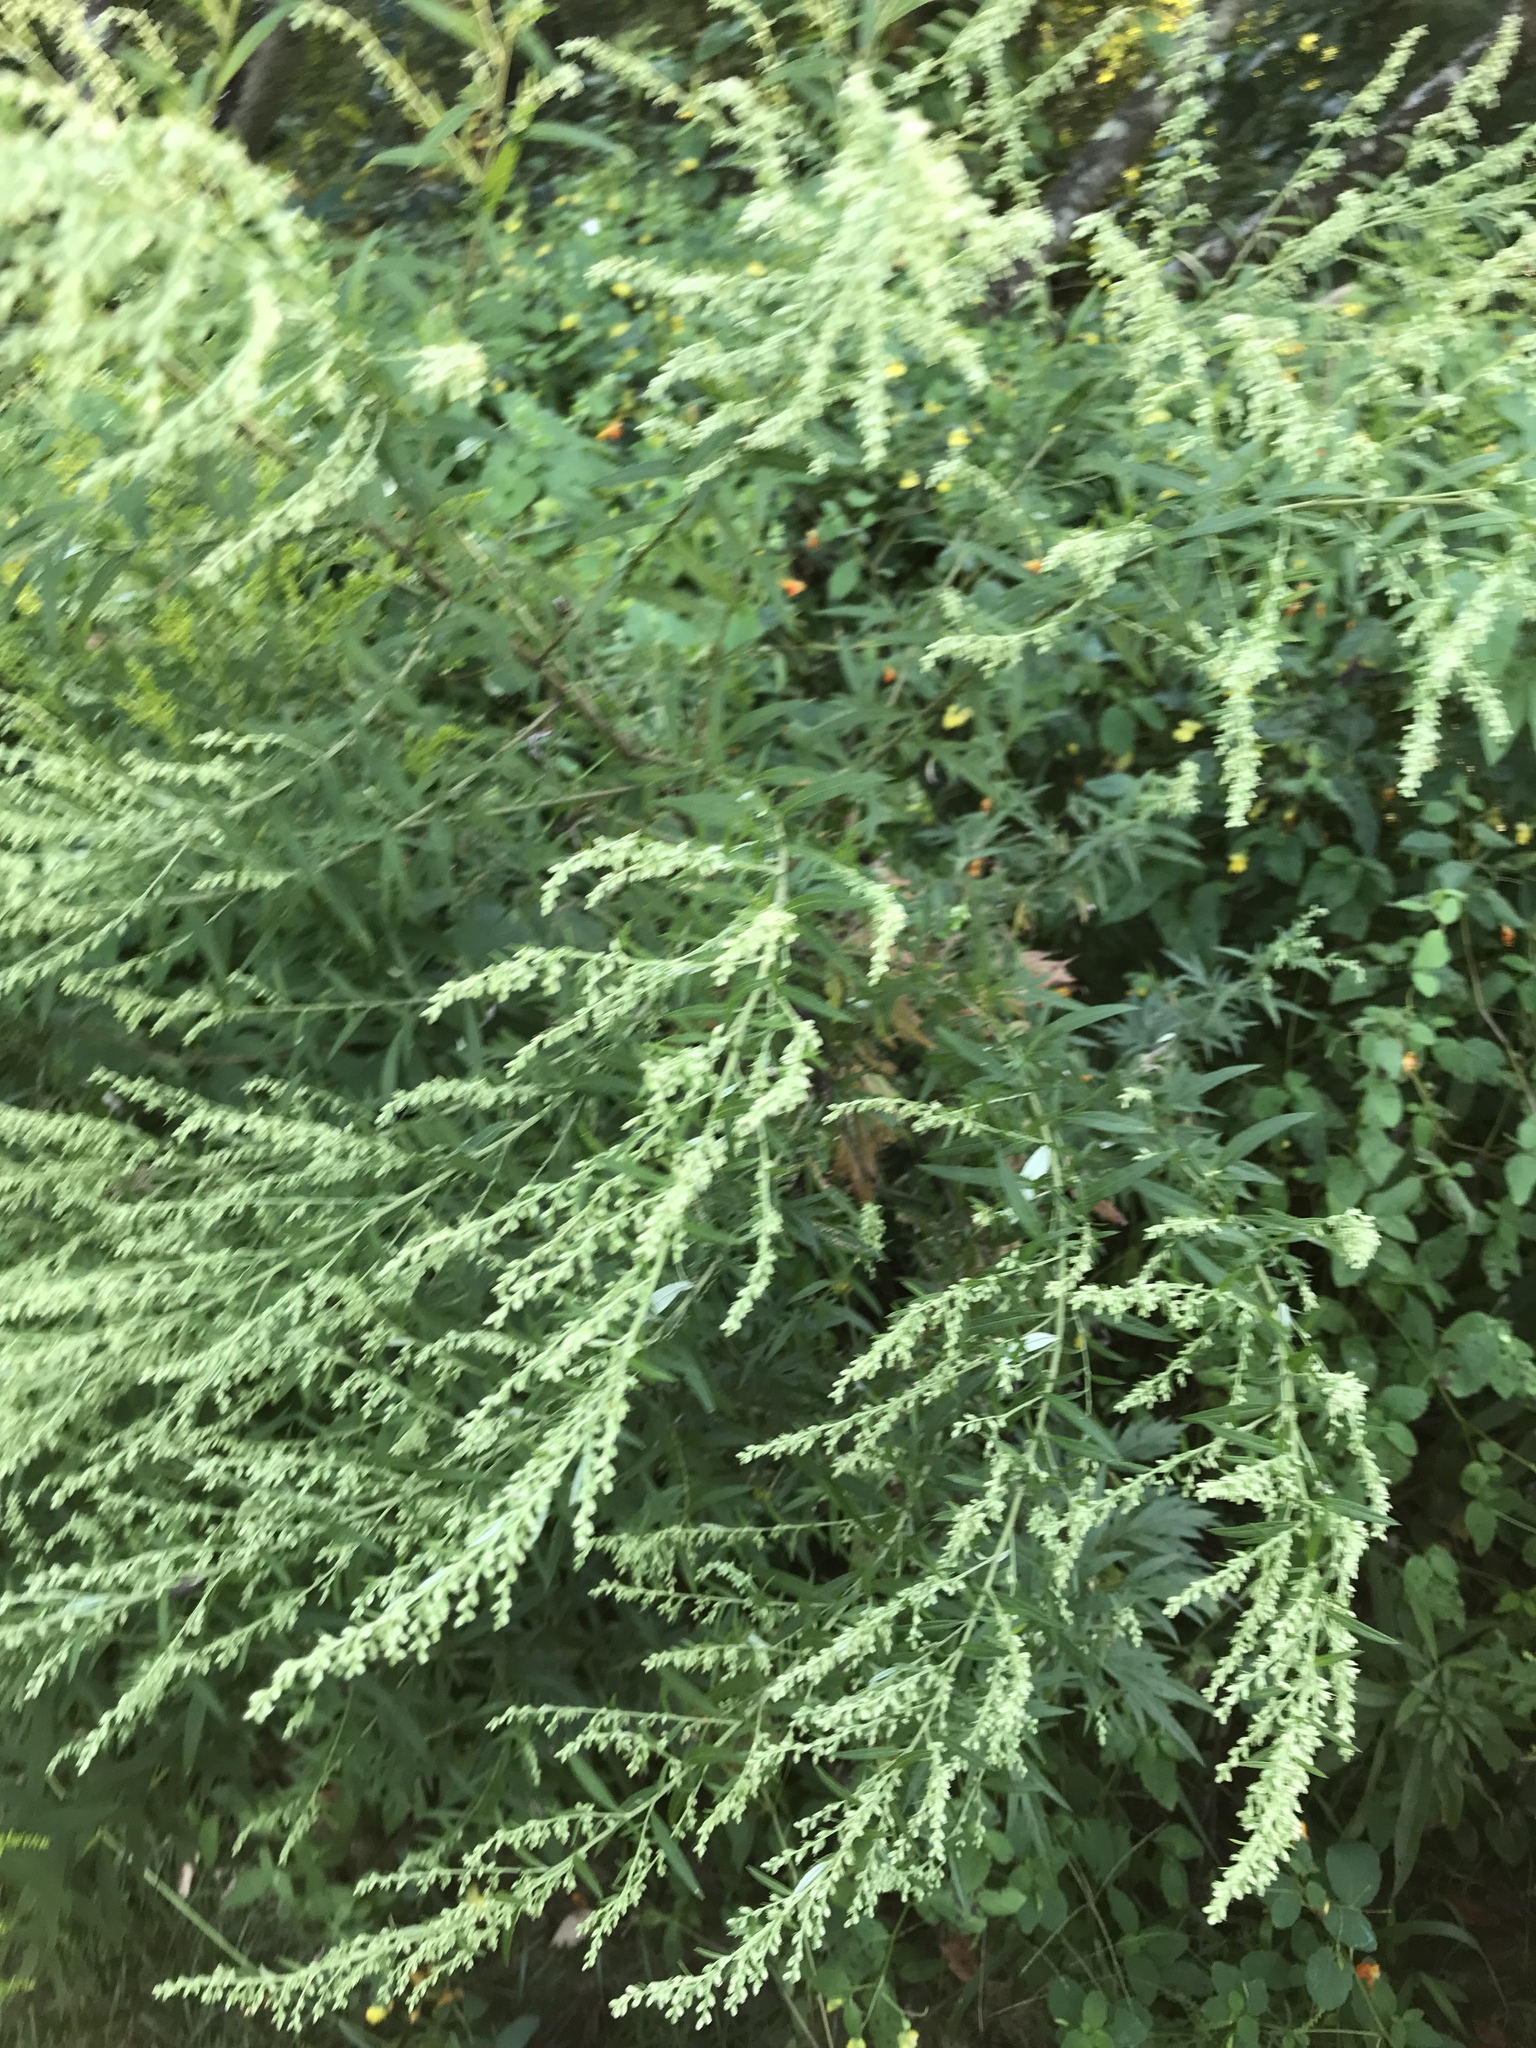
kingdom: Plantae
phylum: Tracheophyta
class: Magnoliopsida
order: Asterales
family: Asteraceae
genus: Artemisia
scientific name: Artemisia vulgaris
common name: Mugwort
